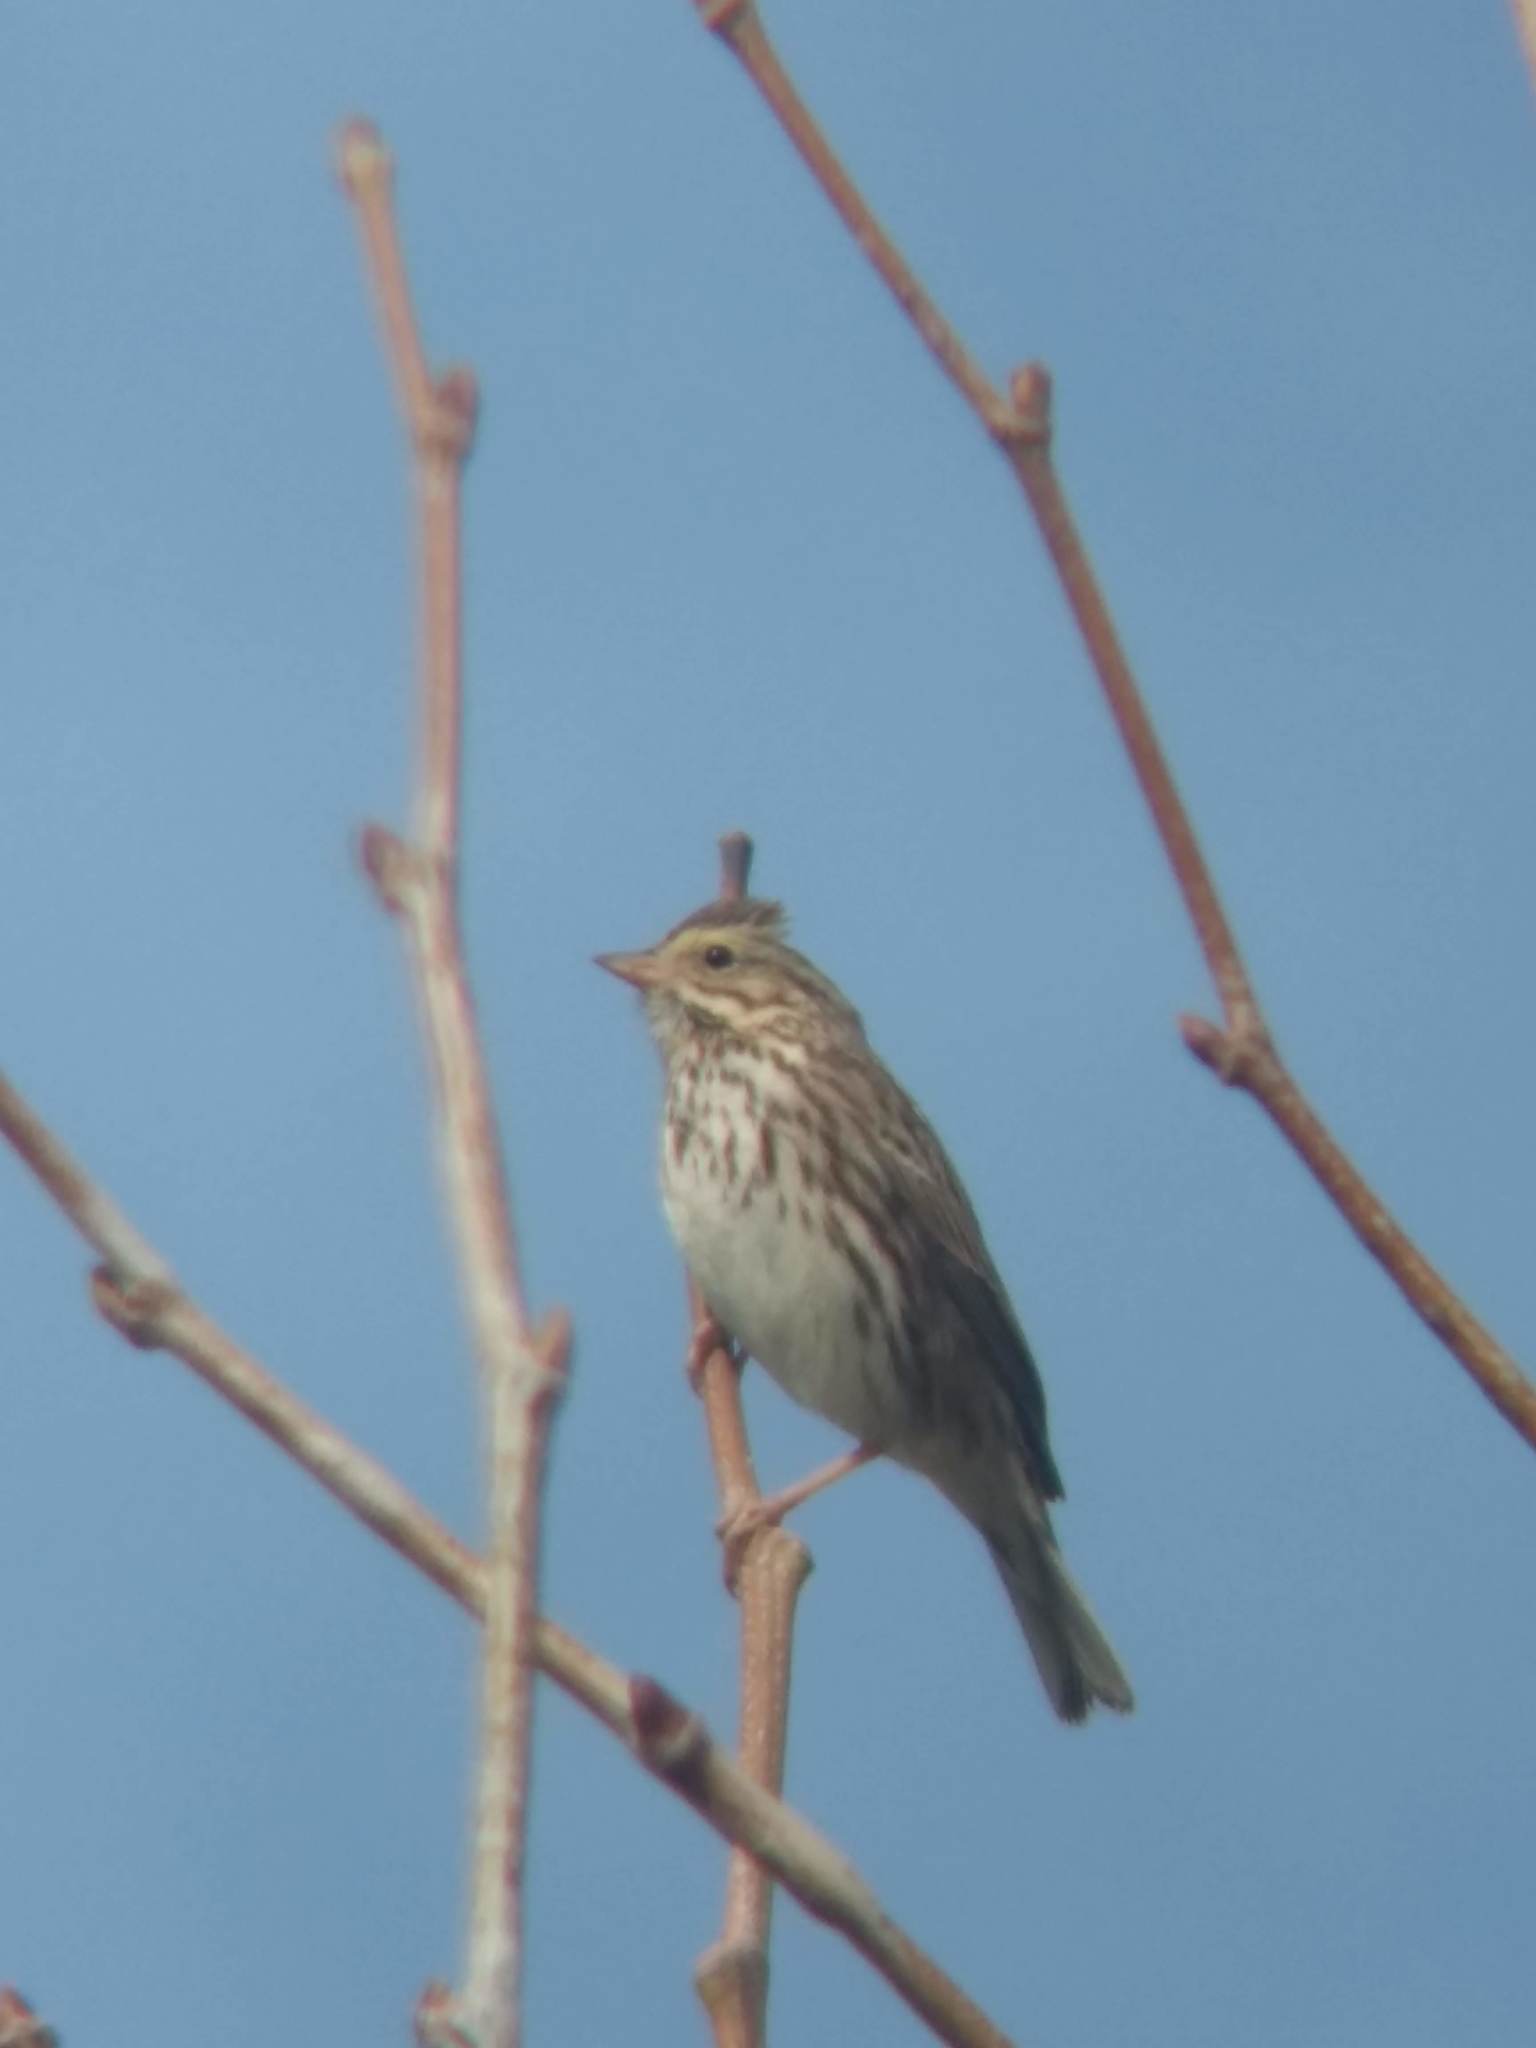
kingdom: Animalia
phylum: Chordata
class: Aves
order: Passeriformes
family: Passerellidae
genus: Passerculus
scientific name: Passerculus sandwichensis
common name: Savannah sparrow
